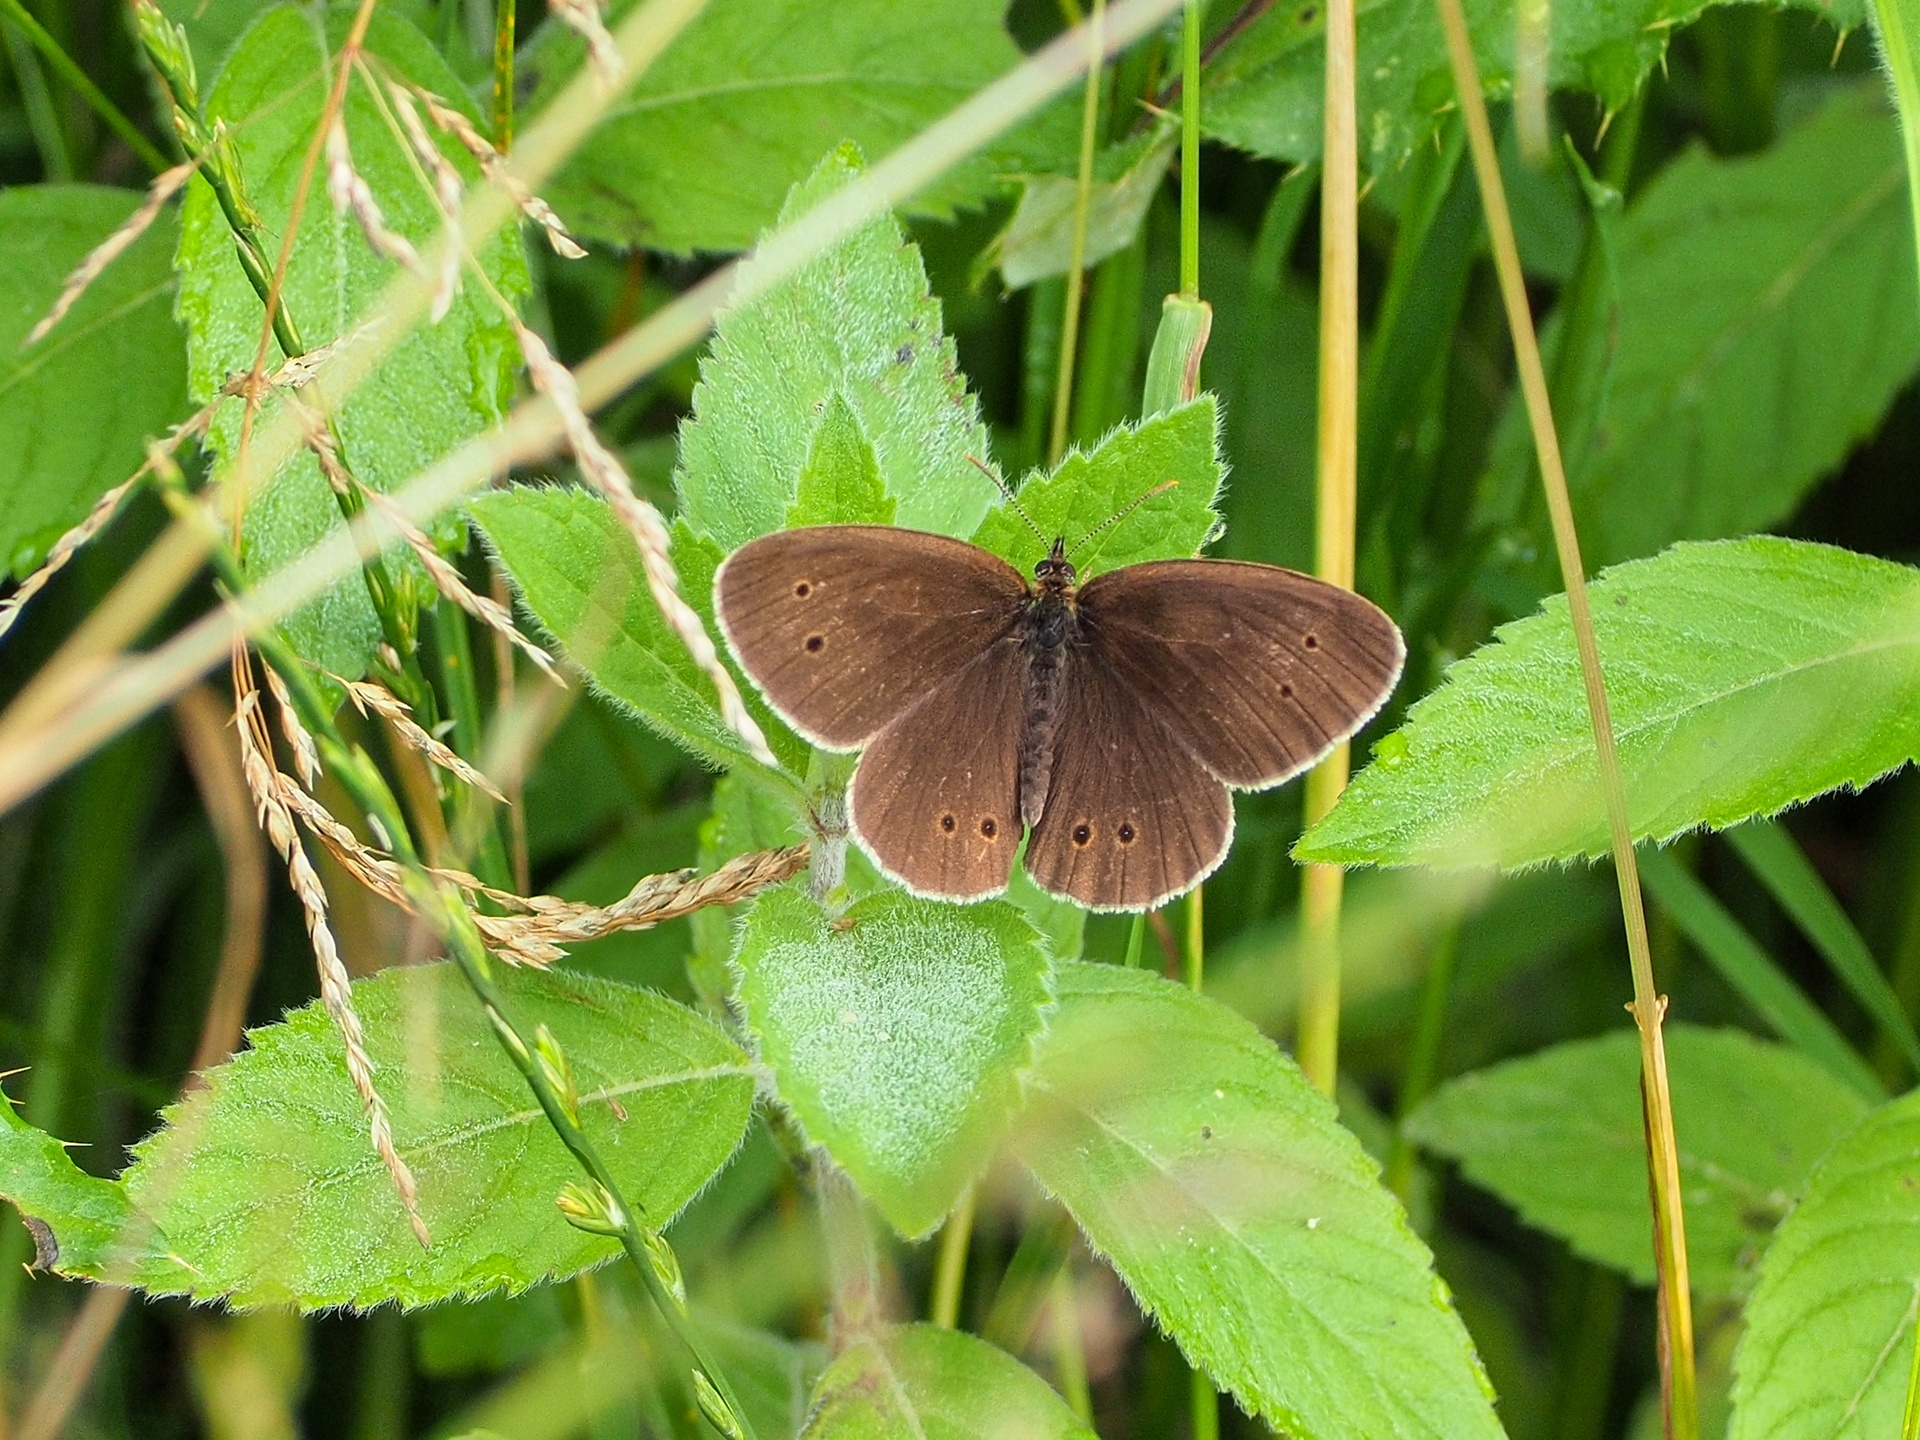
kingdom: Animalia
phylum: Arthropoda
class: Insecta
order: Lepidoptera
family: Nymphalidae
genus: Aphantopus
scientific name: Aphantopus hyperantus
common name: Ringlet
